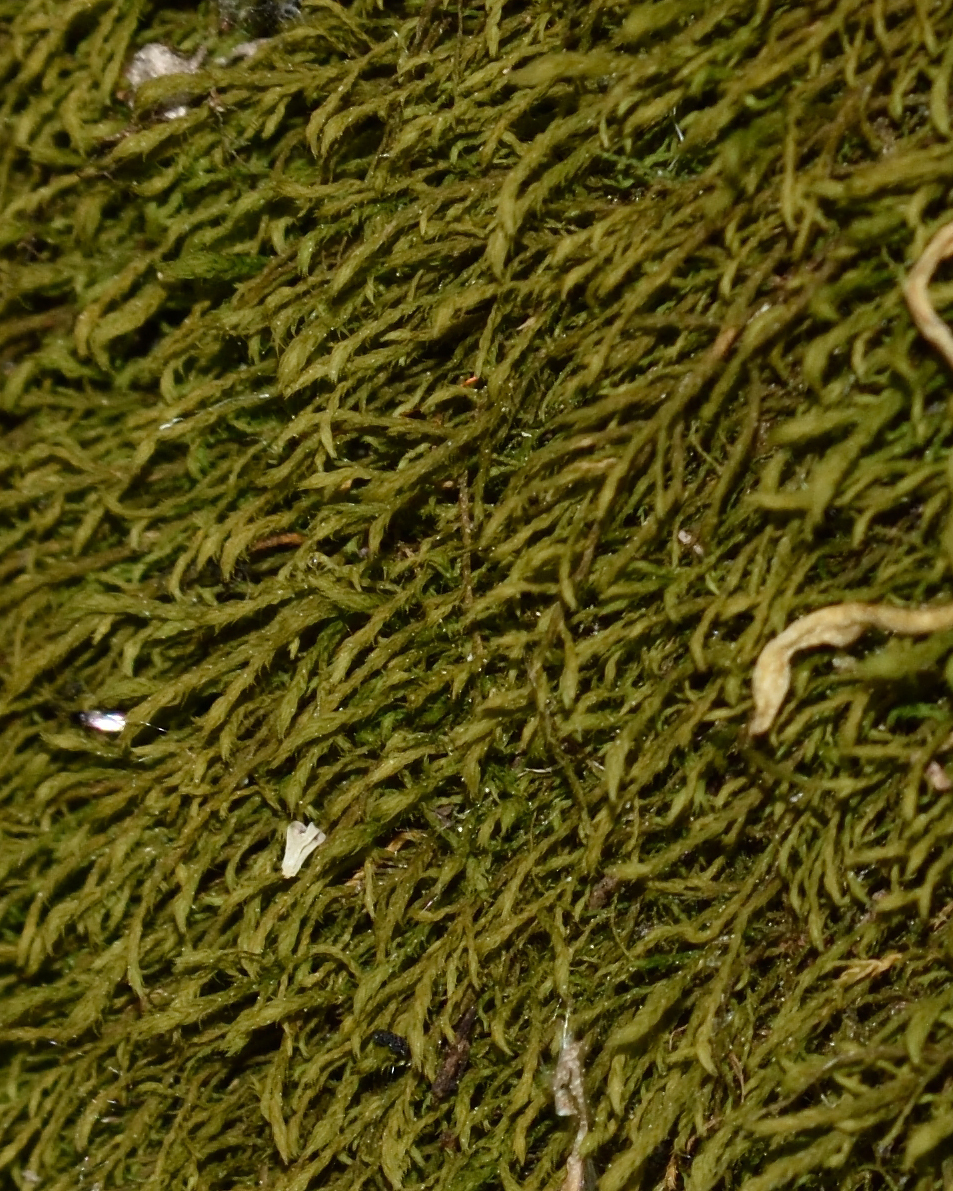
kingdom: Plantae
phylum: Bryophyta
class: Bryopsida
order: Hypnales
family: Anomodontaceae
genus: Anomodontella
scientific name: Anomodontella longifolia
